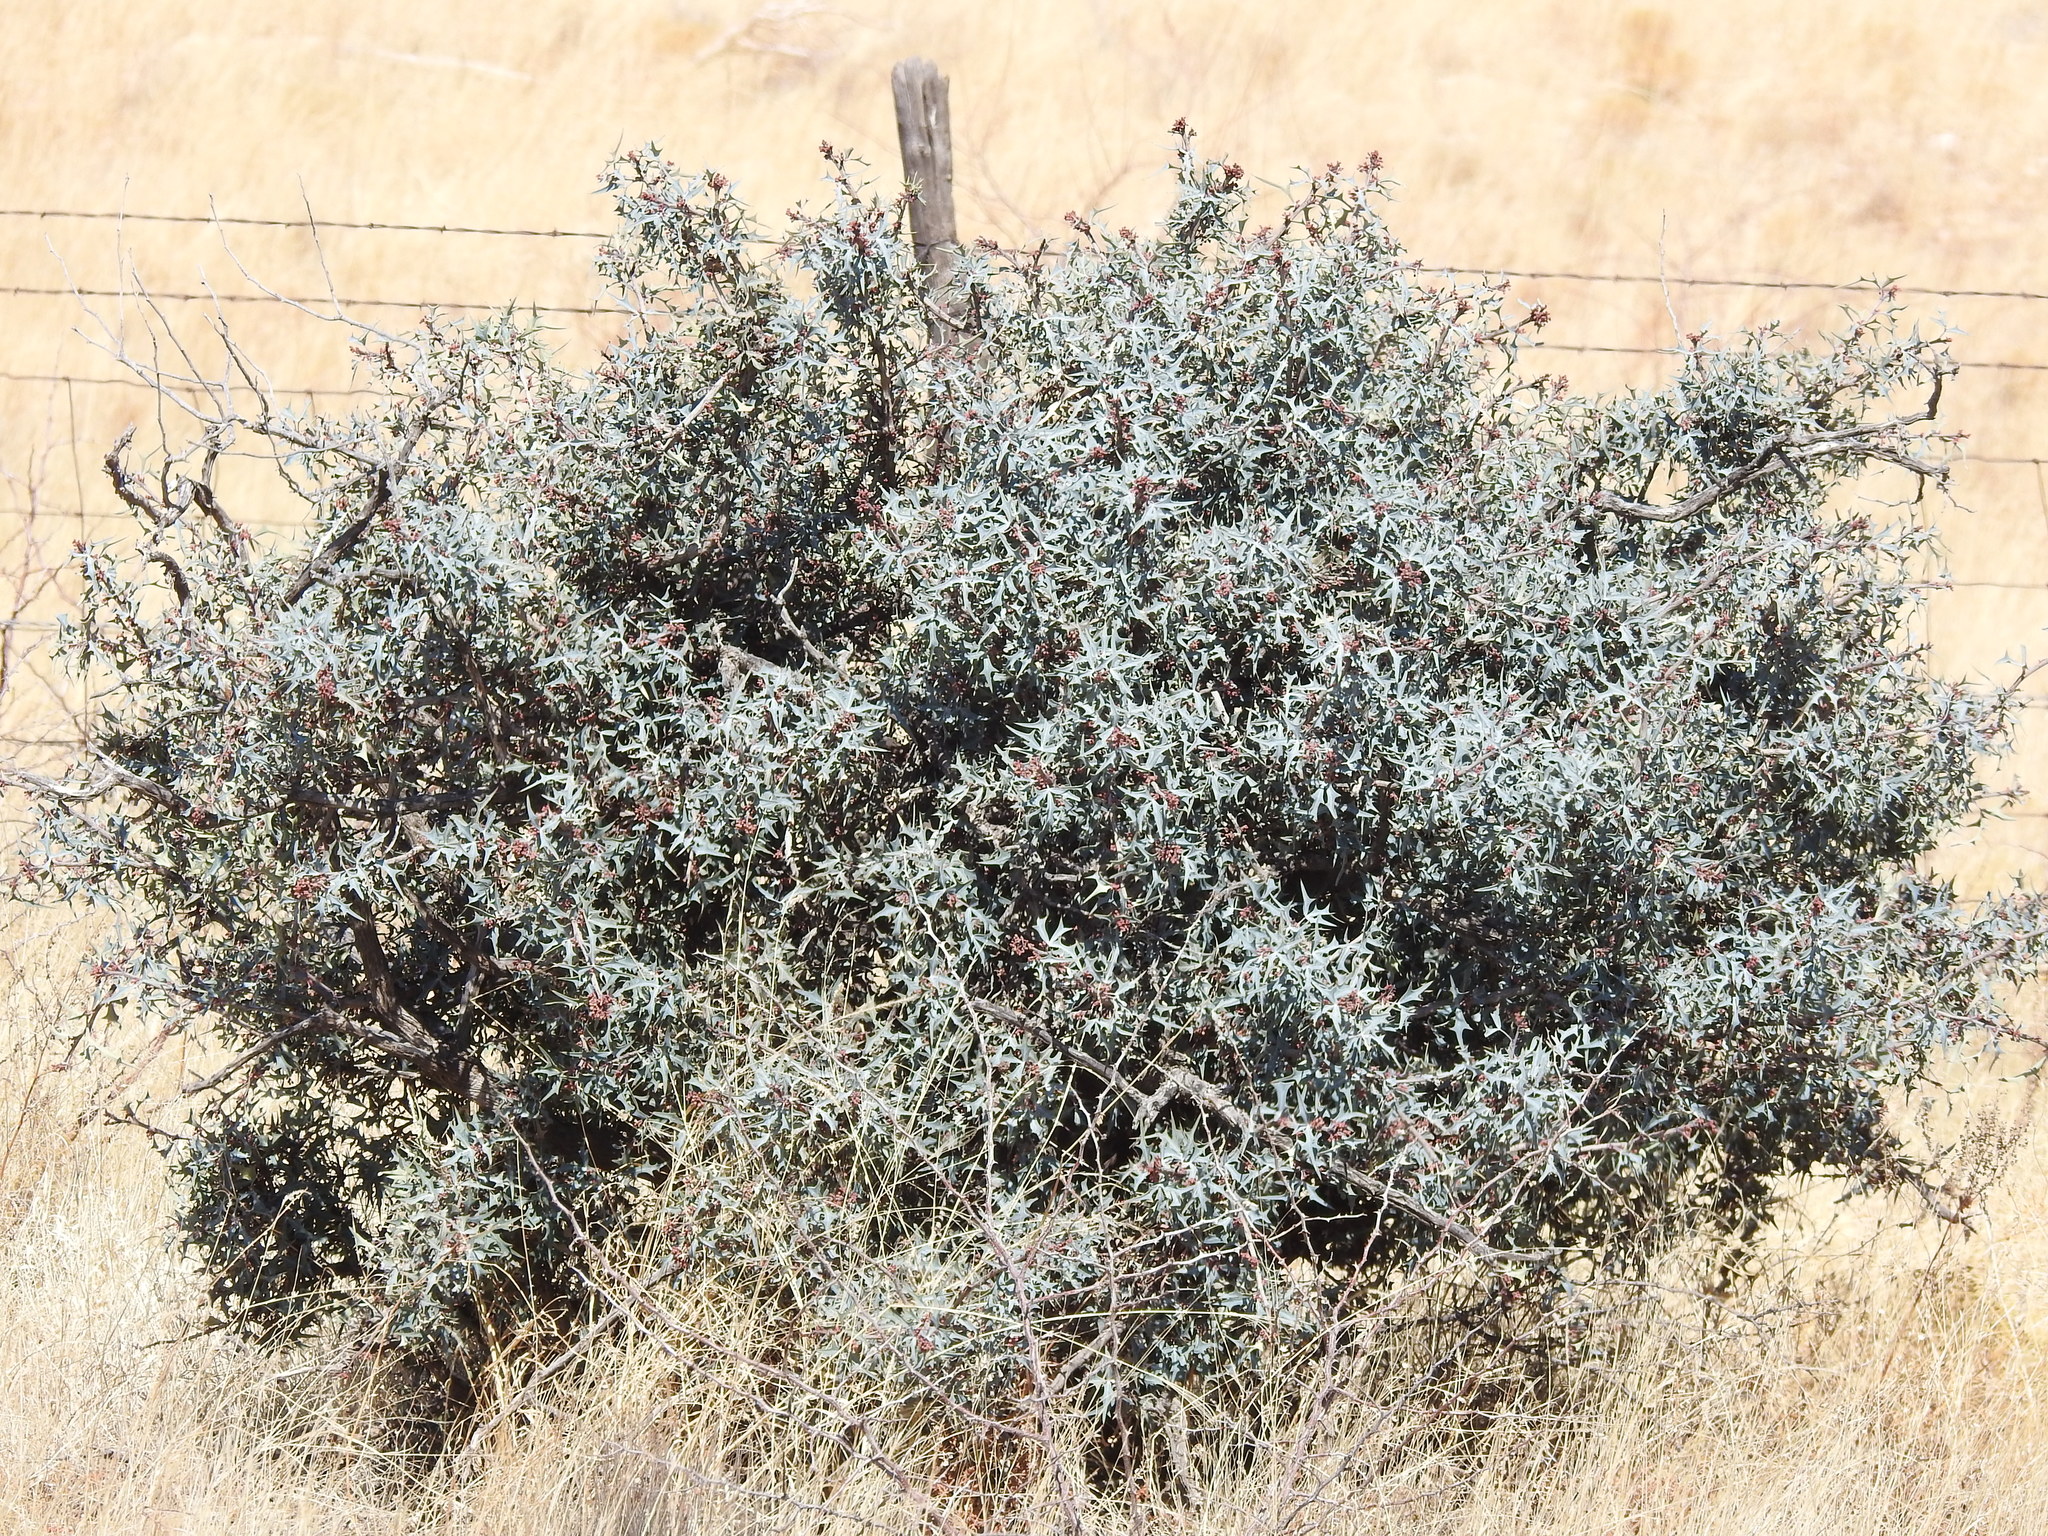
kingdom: Plantae
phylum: Tracheophyta
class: Magnoliopsida
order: Ranunculales
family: Berberidaceae
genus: Alloberberis
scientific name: Alloberberis trifoliolata
